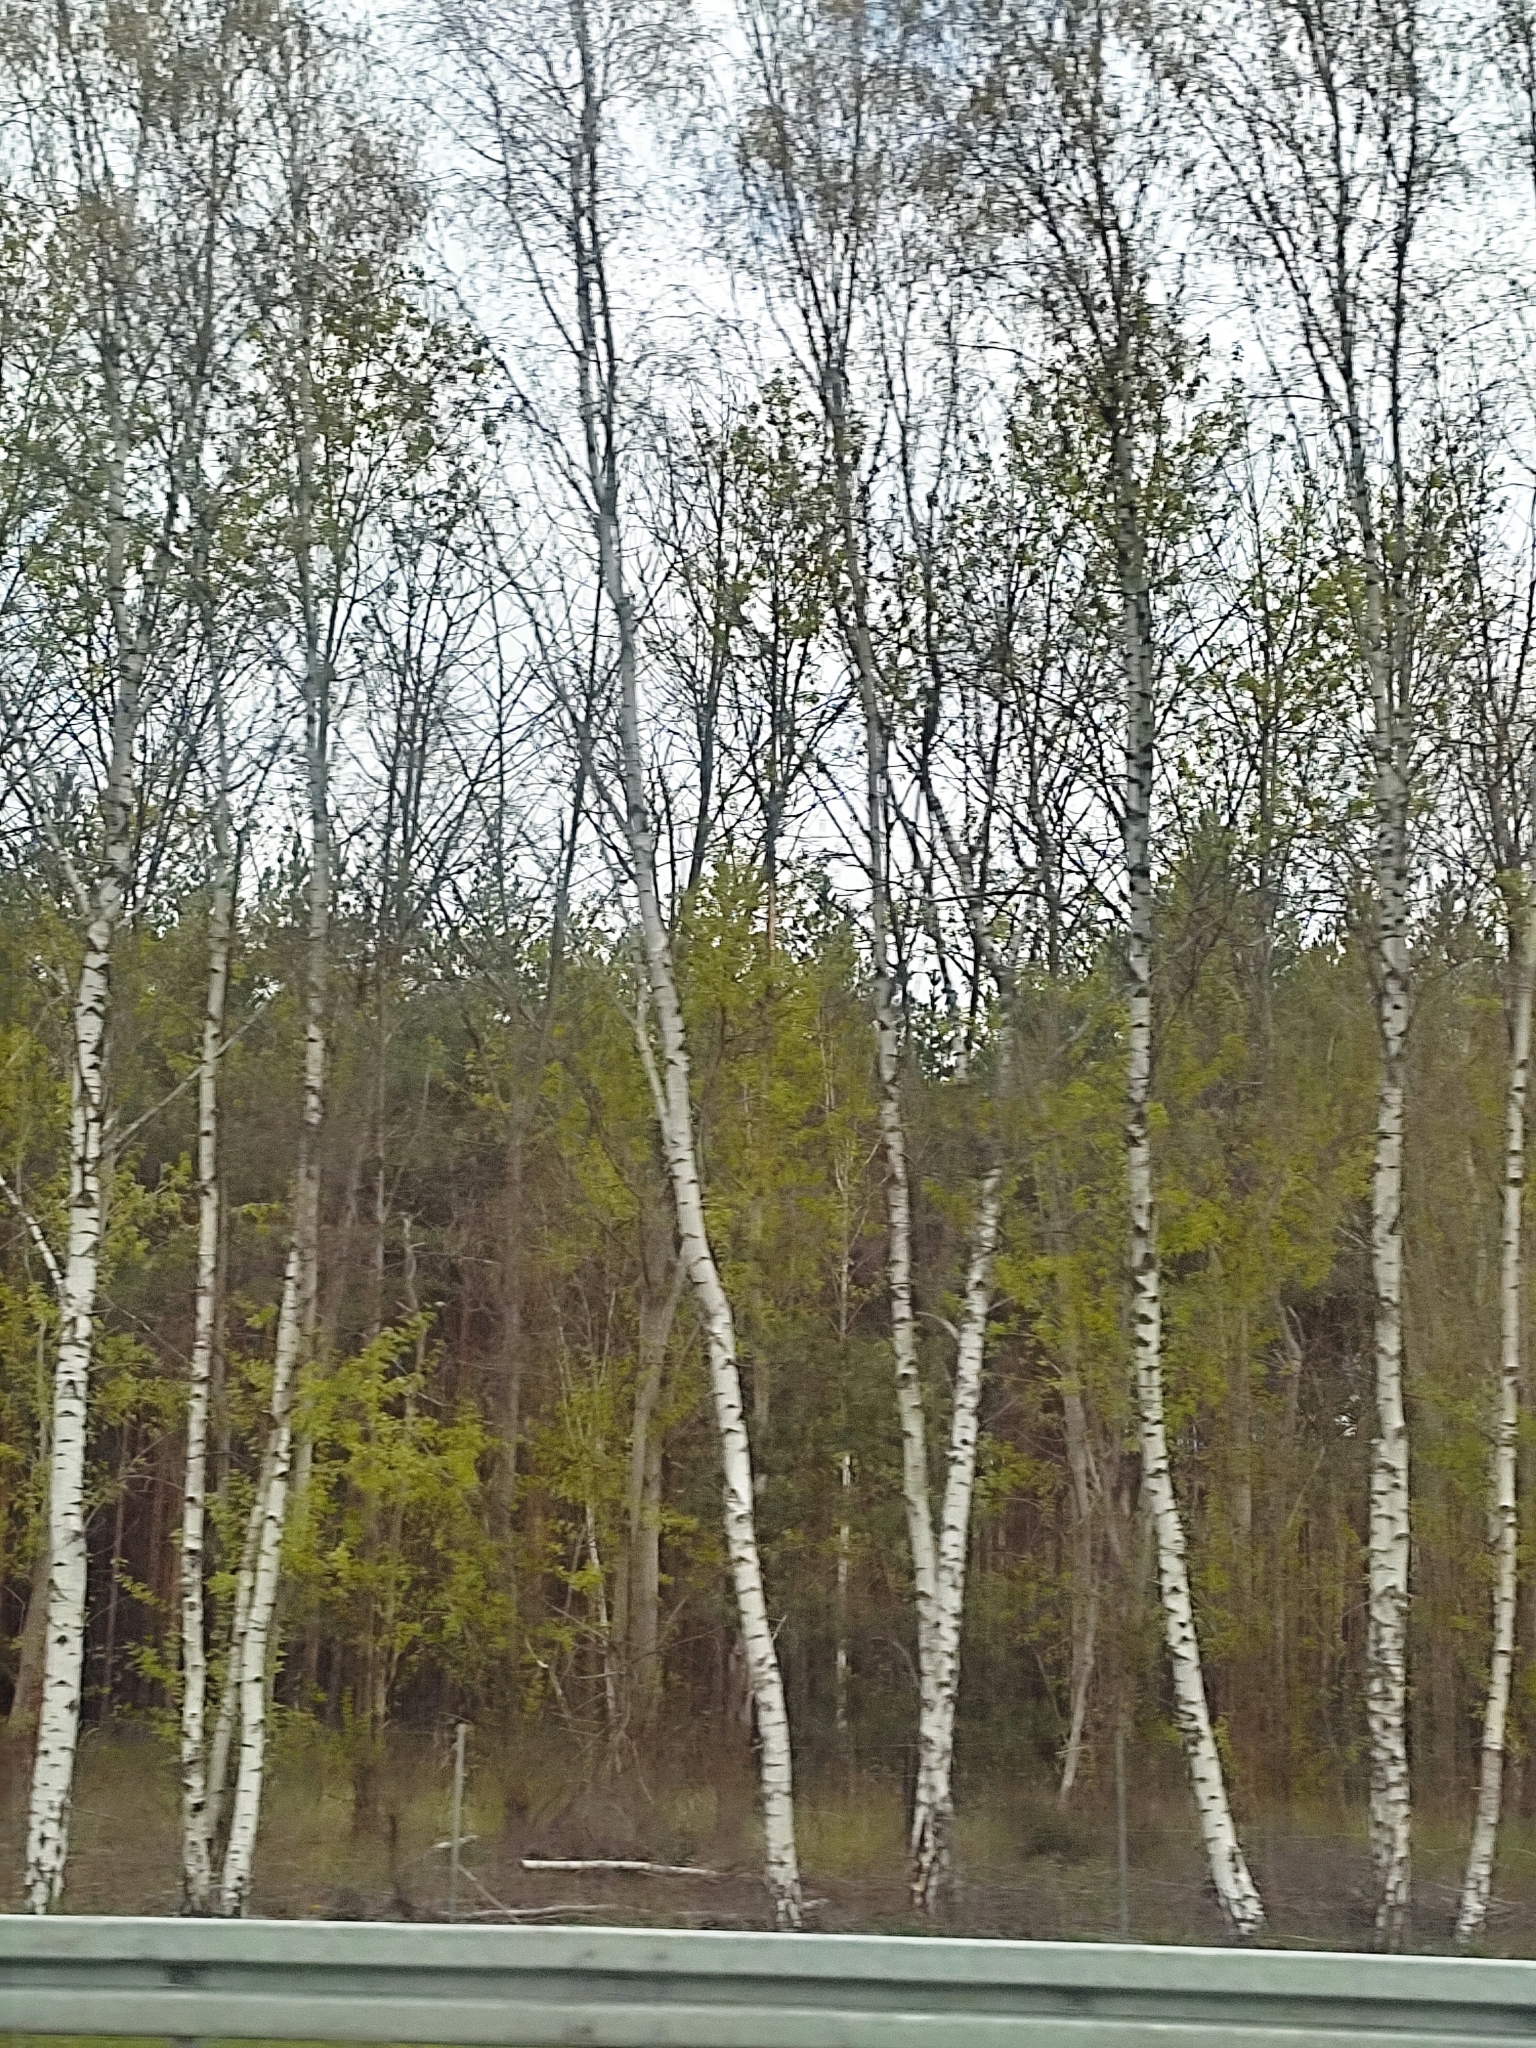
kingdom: Plantae
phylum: Tracheophyta
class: Magnoliopsida
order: Fagales
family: Betulaceae
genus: Betula
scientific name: Betula pendula
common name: Silver birch
